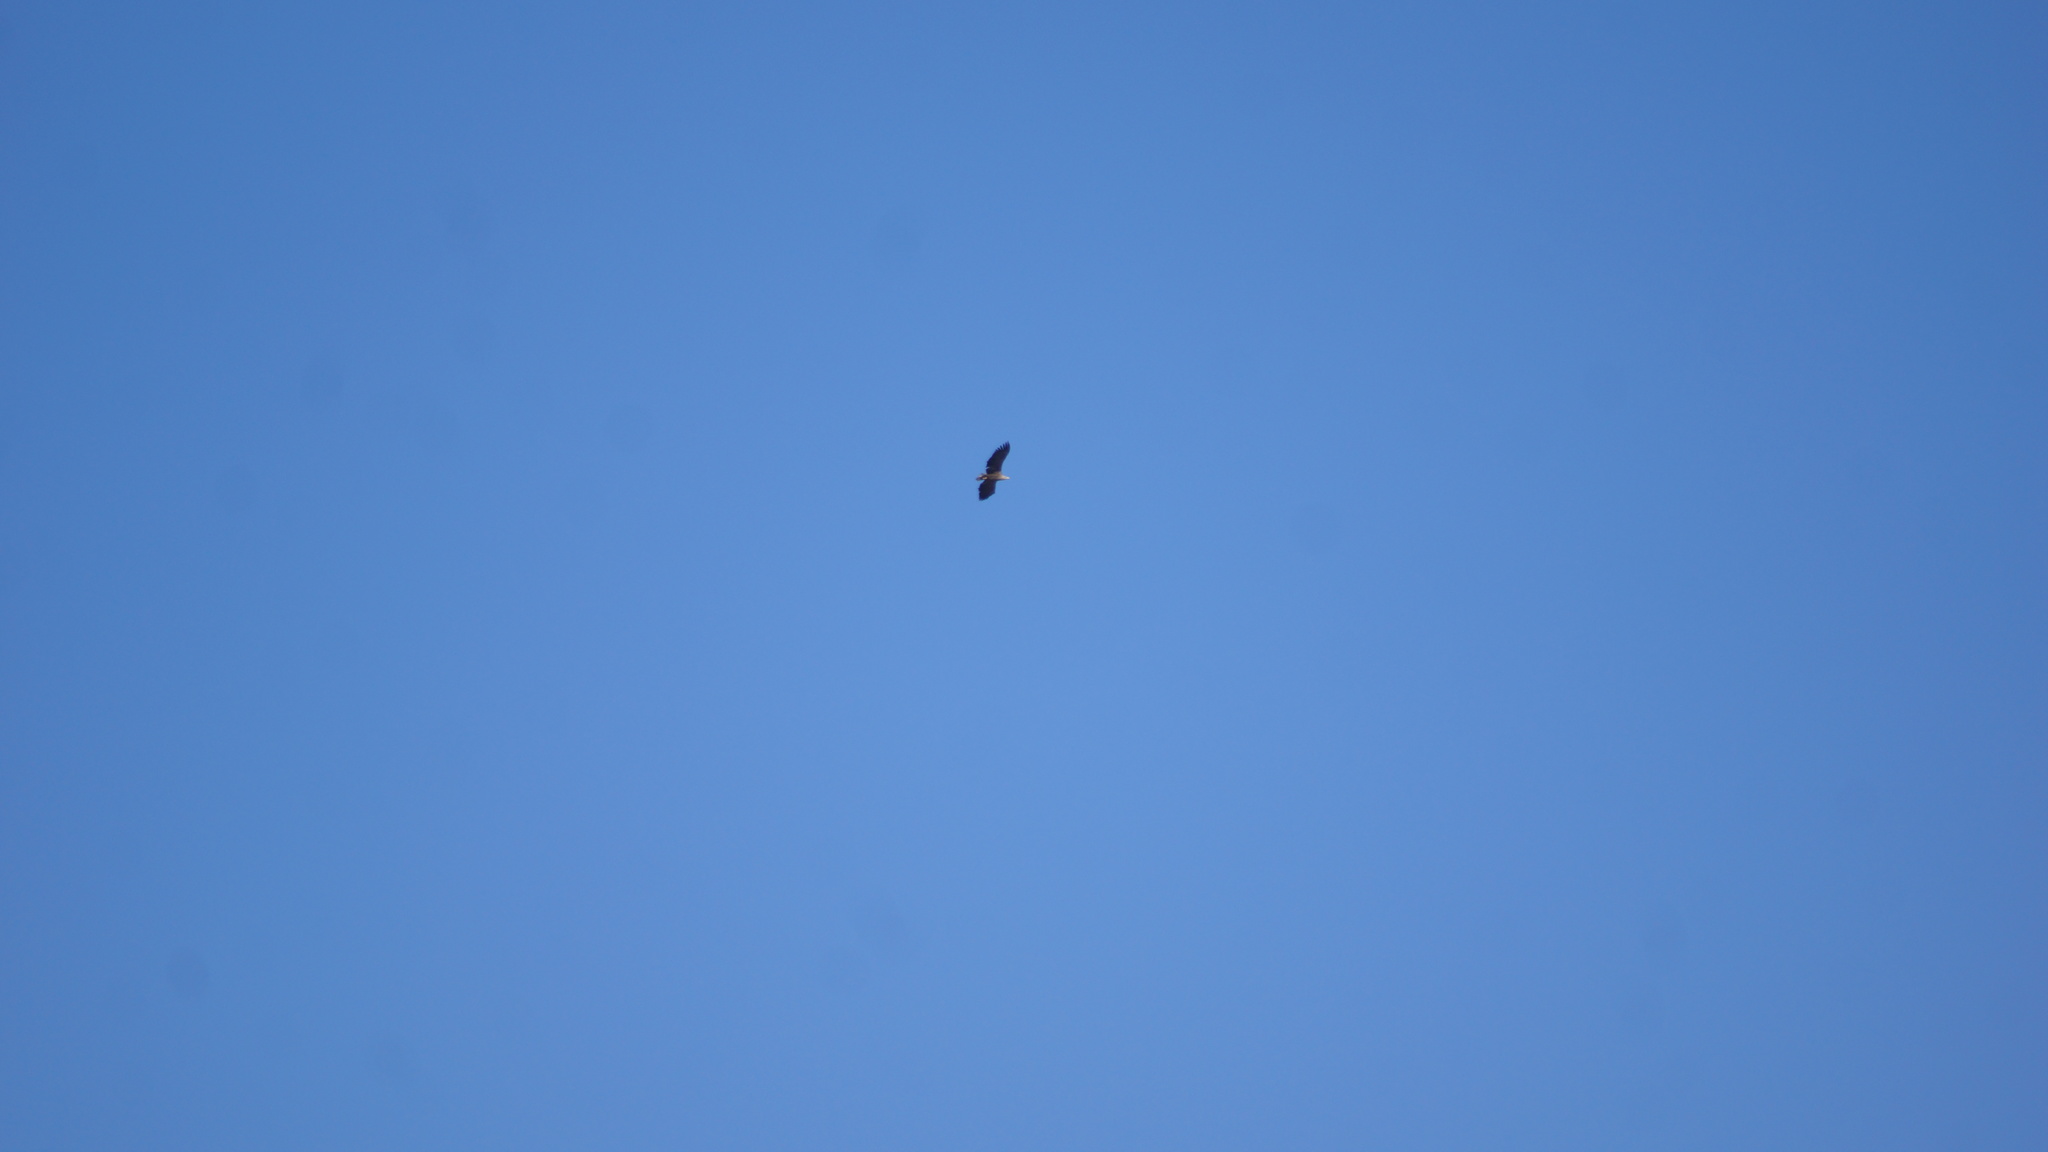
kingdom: Animalia
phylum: Chordata
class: Aves
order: Accipitriformes
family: Accipitridae
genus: Haliaeetus
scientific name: Haliaeetus albicilla
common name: White-tailed eagle
